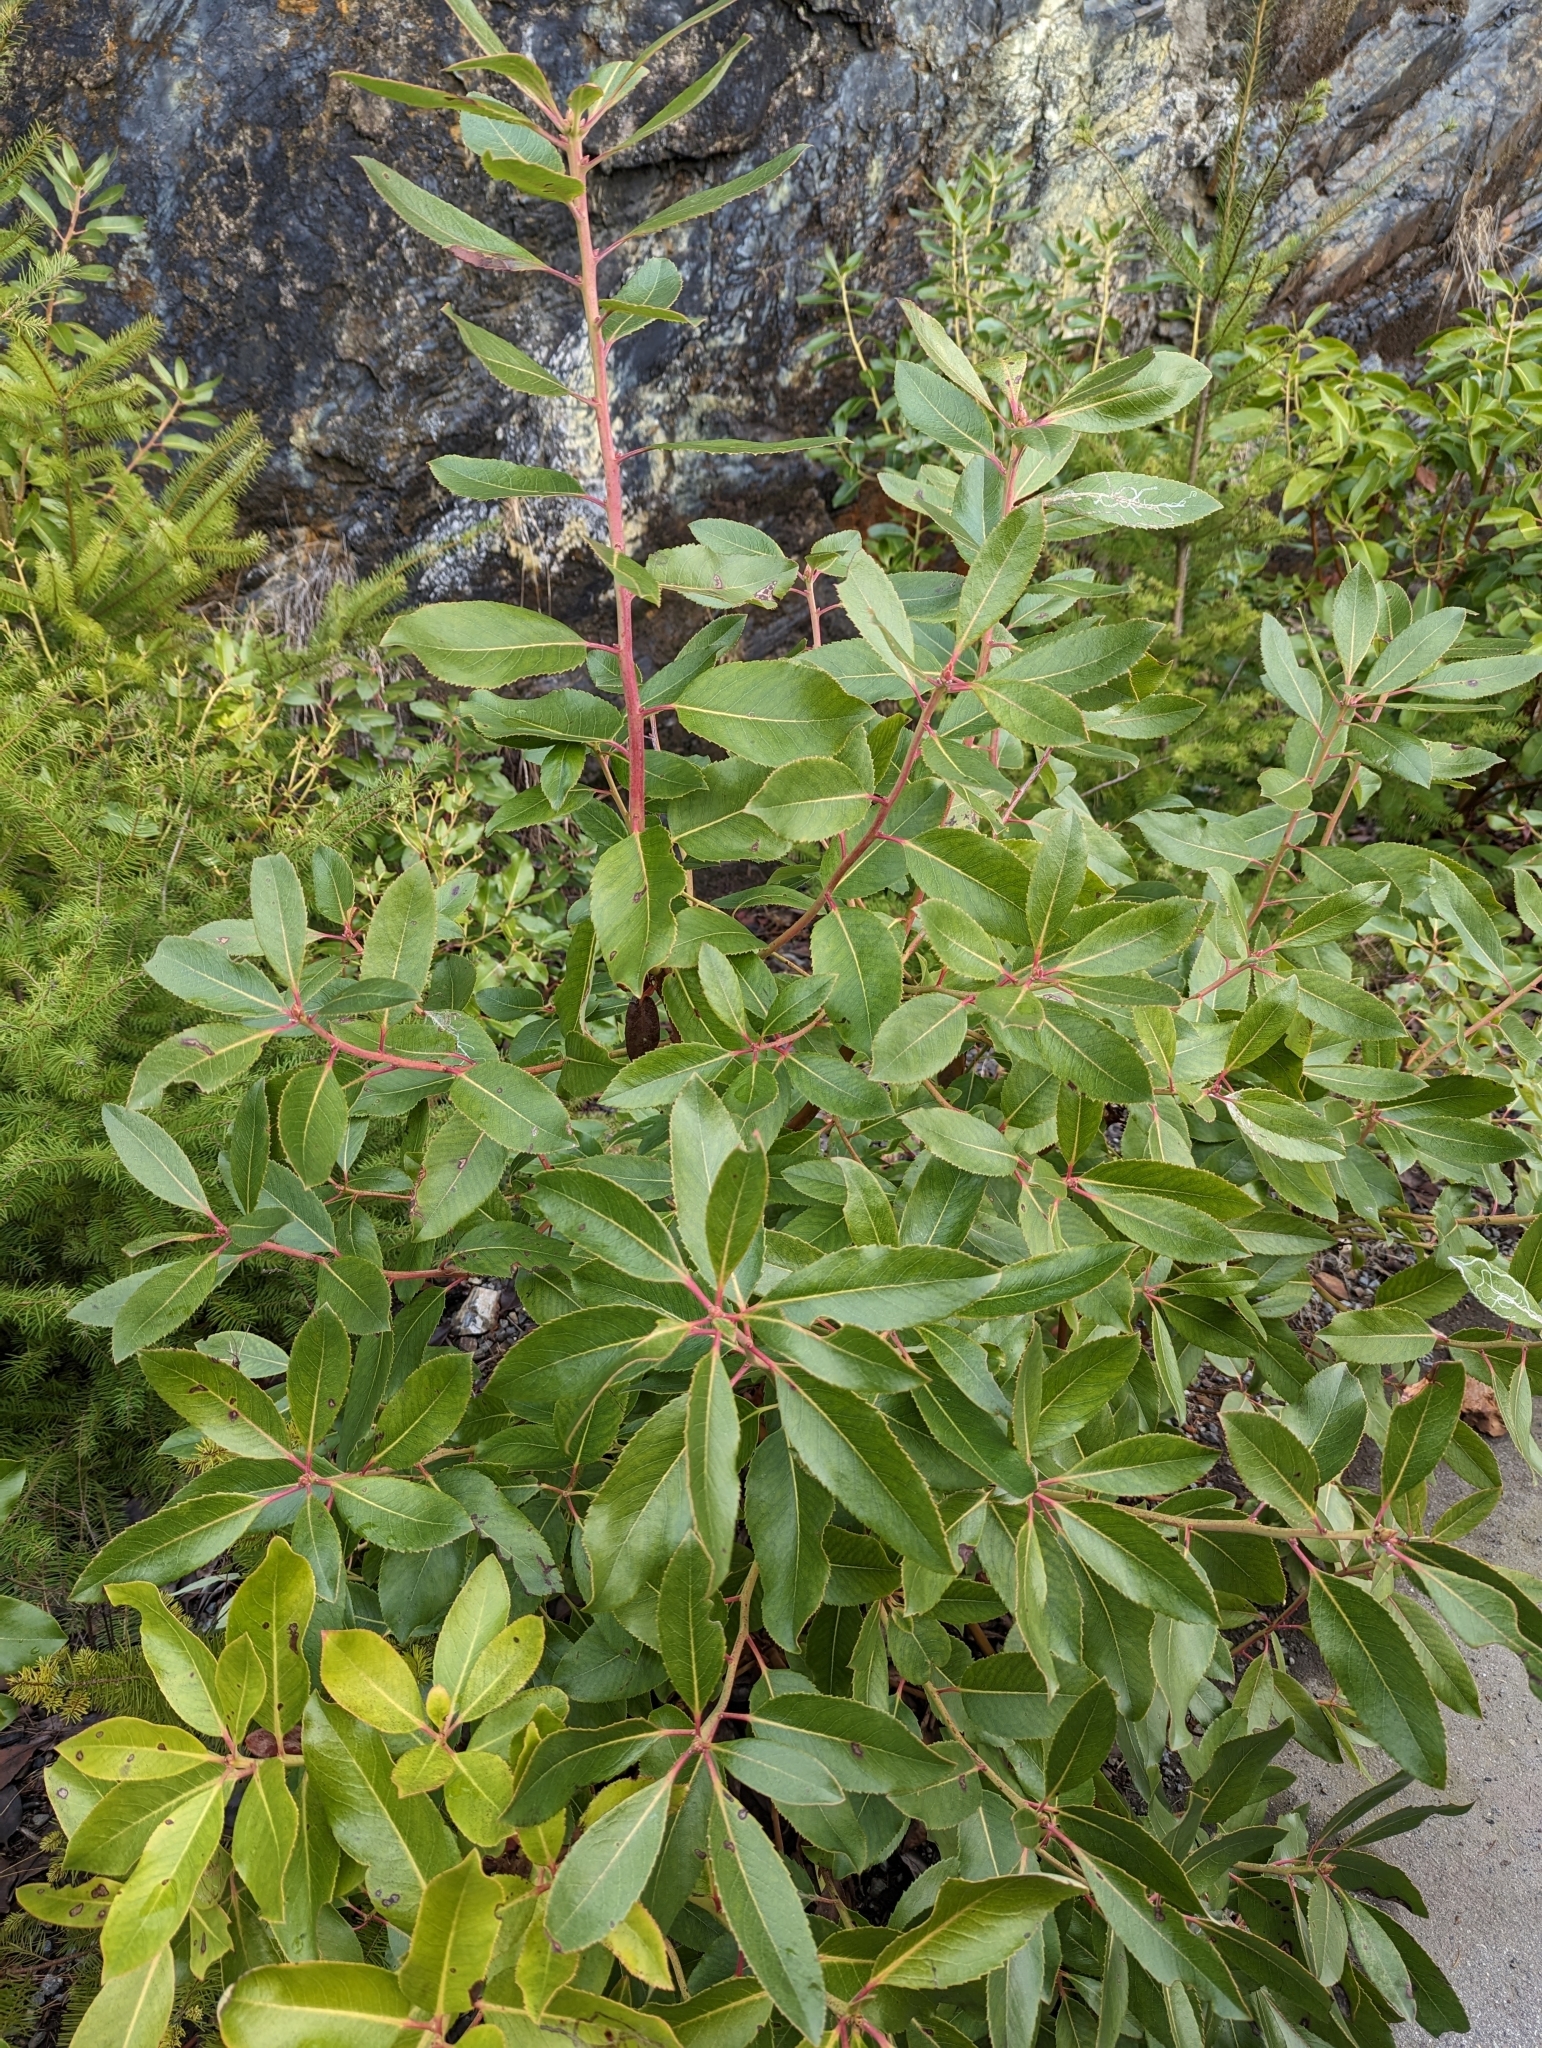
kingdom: Plantae
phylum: Tracheophyta
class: Magnoliopsida
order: Ericales
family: Ericaceae
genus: Arbutus
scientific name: Arbutus menziesii
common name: Pacific madrone
